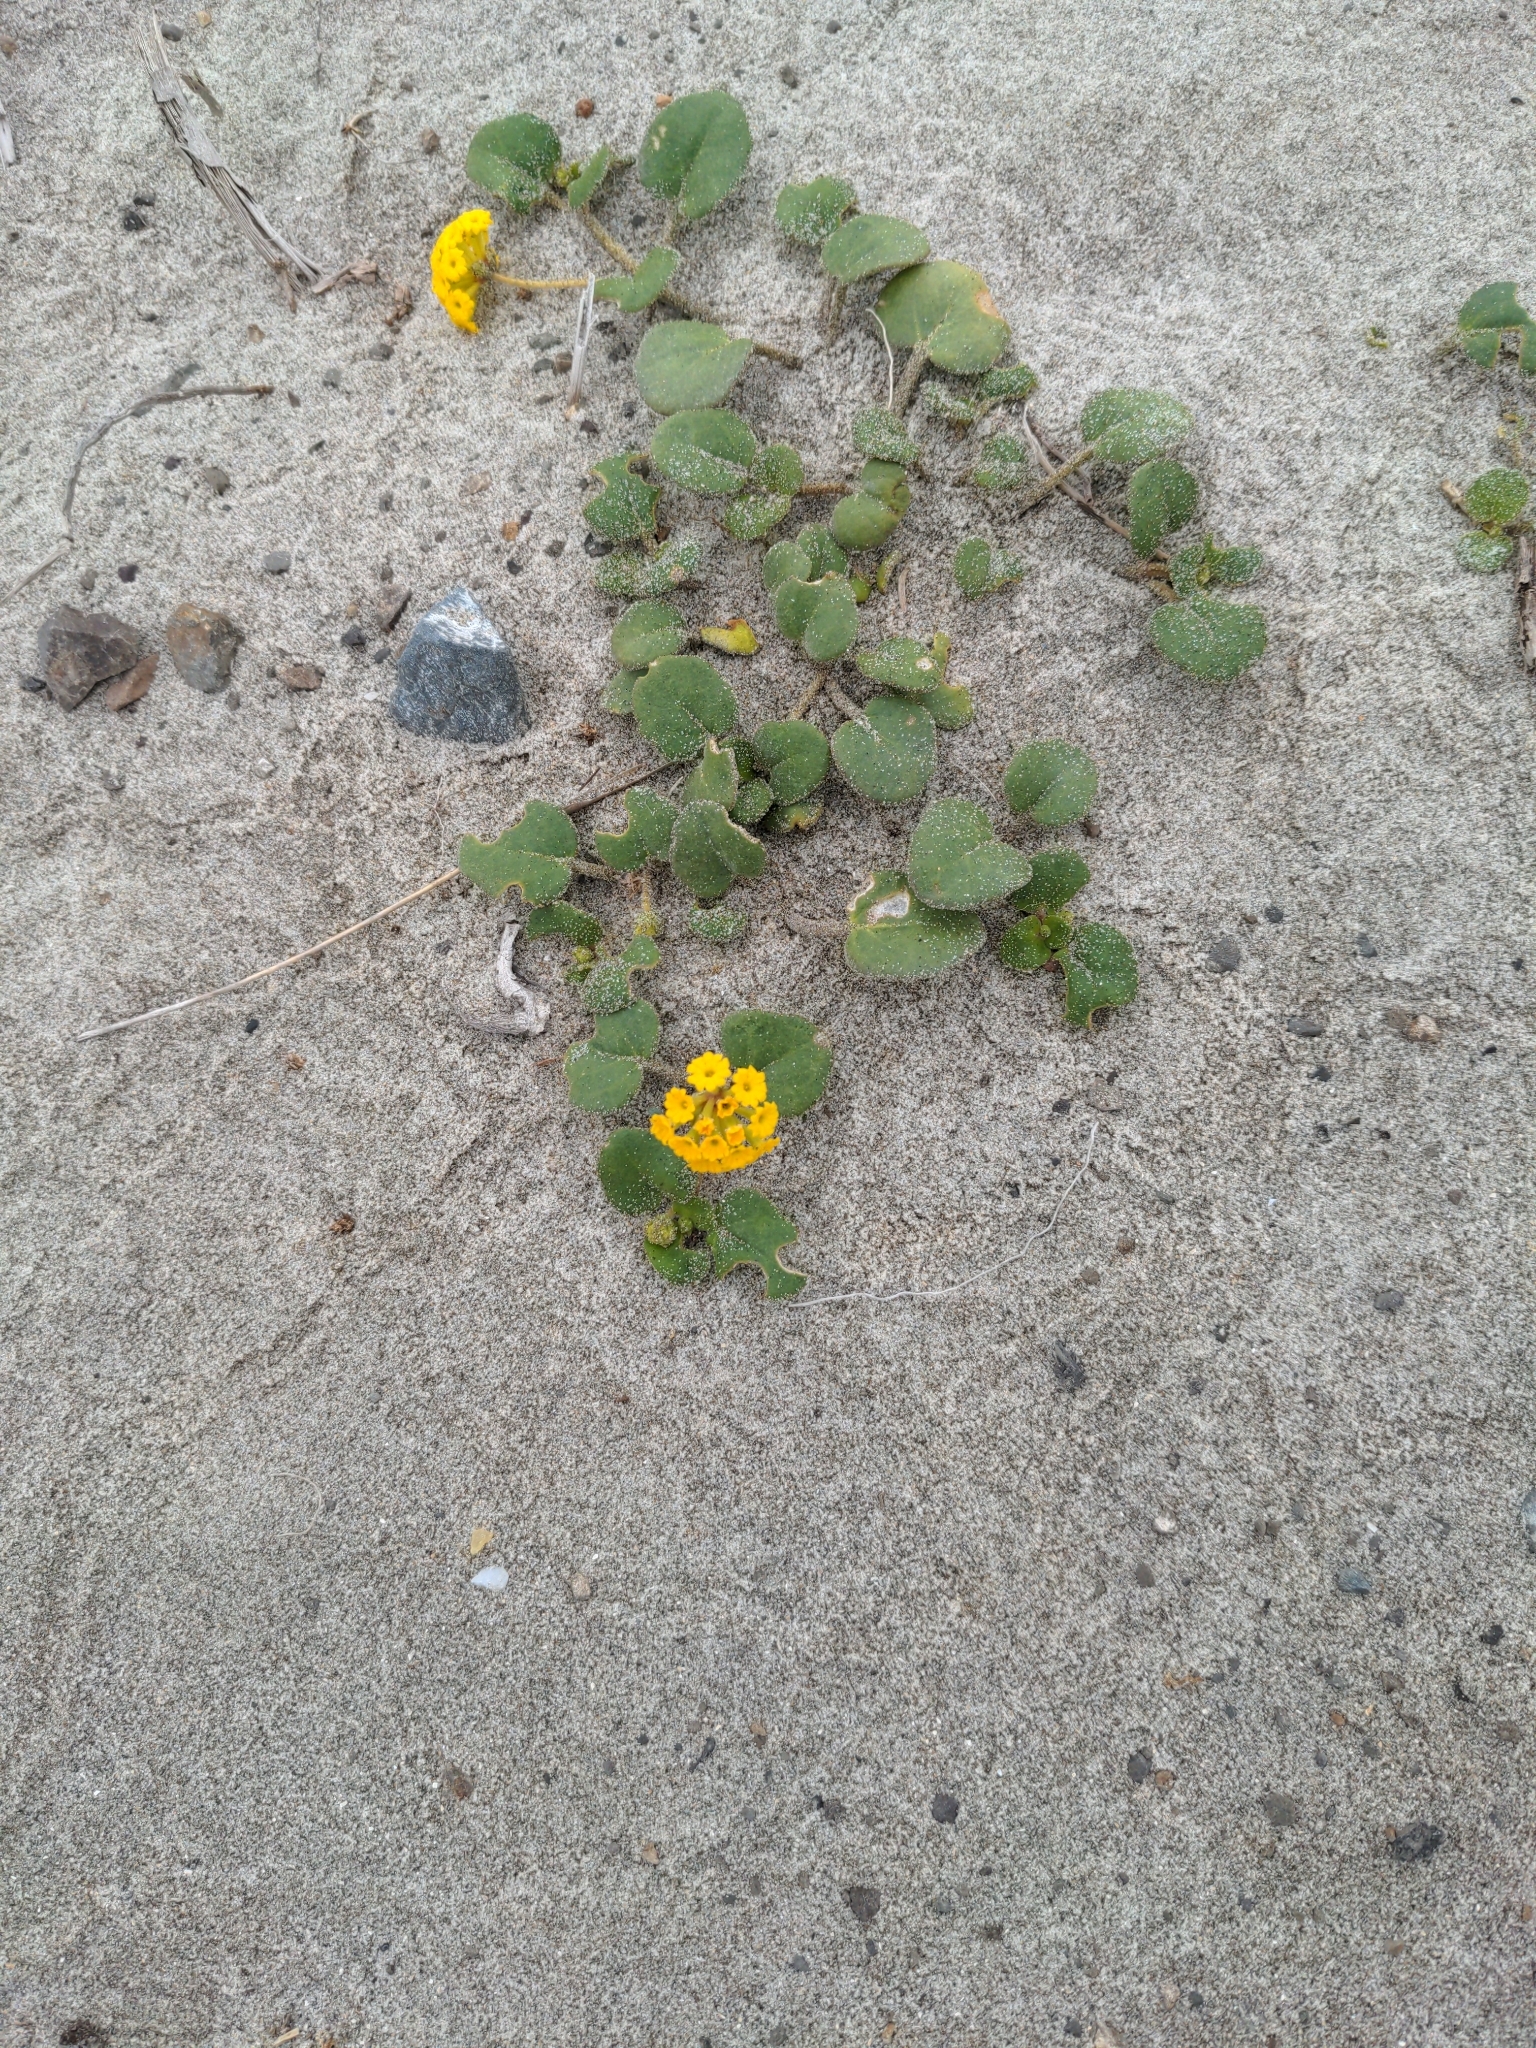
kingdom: Plantae
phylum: Tracheophyta
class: Magnoliopsida
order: Caryophyllales
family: Nyctaginaceae
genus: Abronia
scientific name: Abronia latifolia
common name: Yellow sand-verbena
